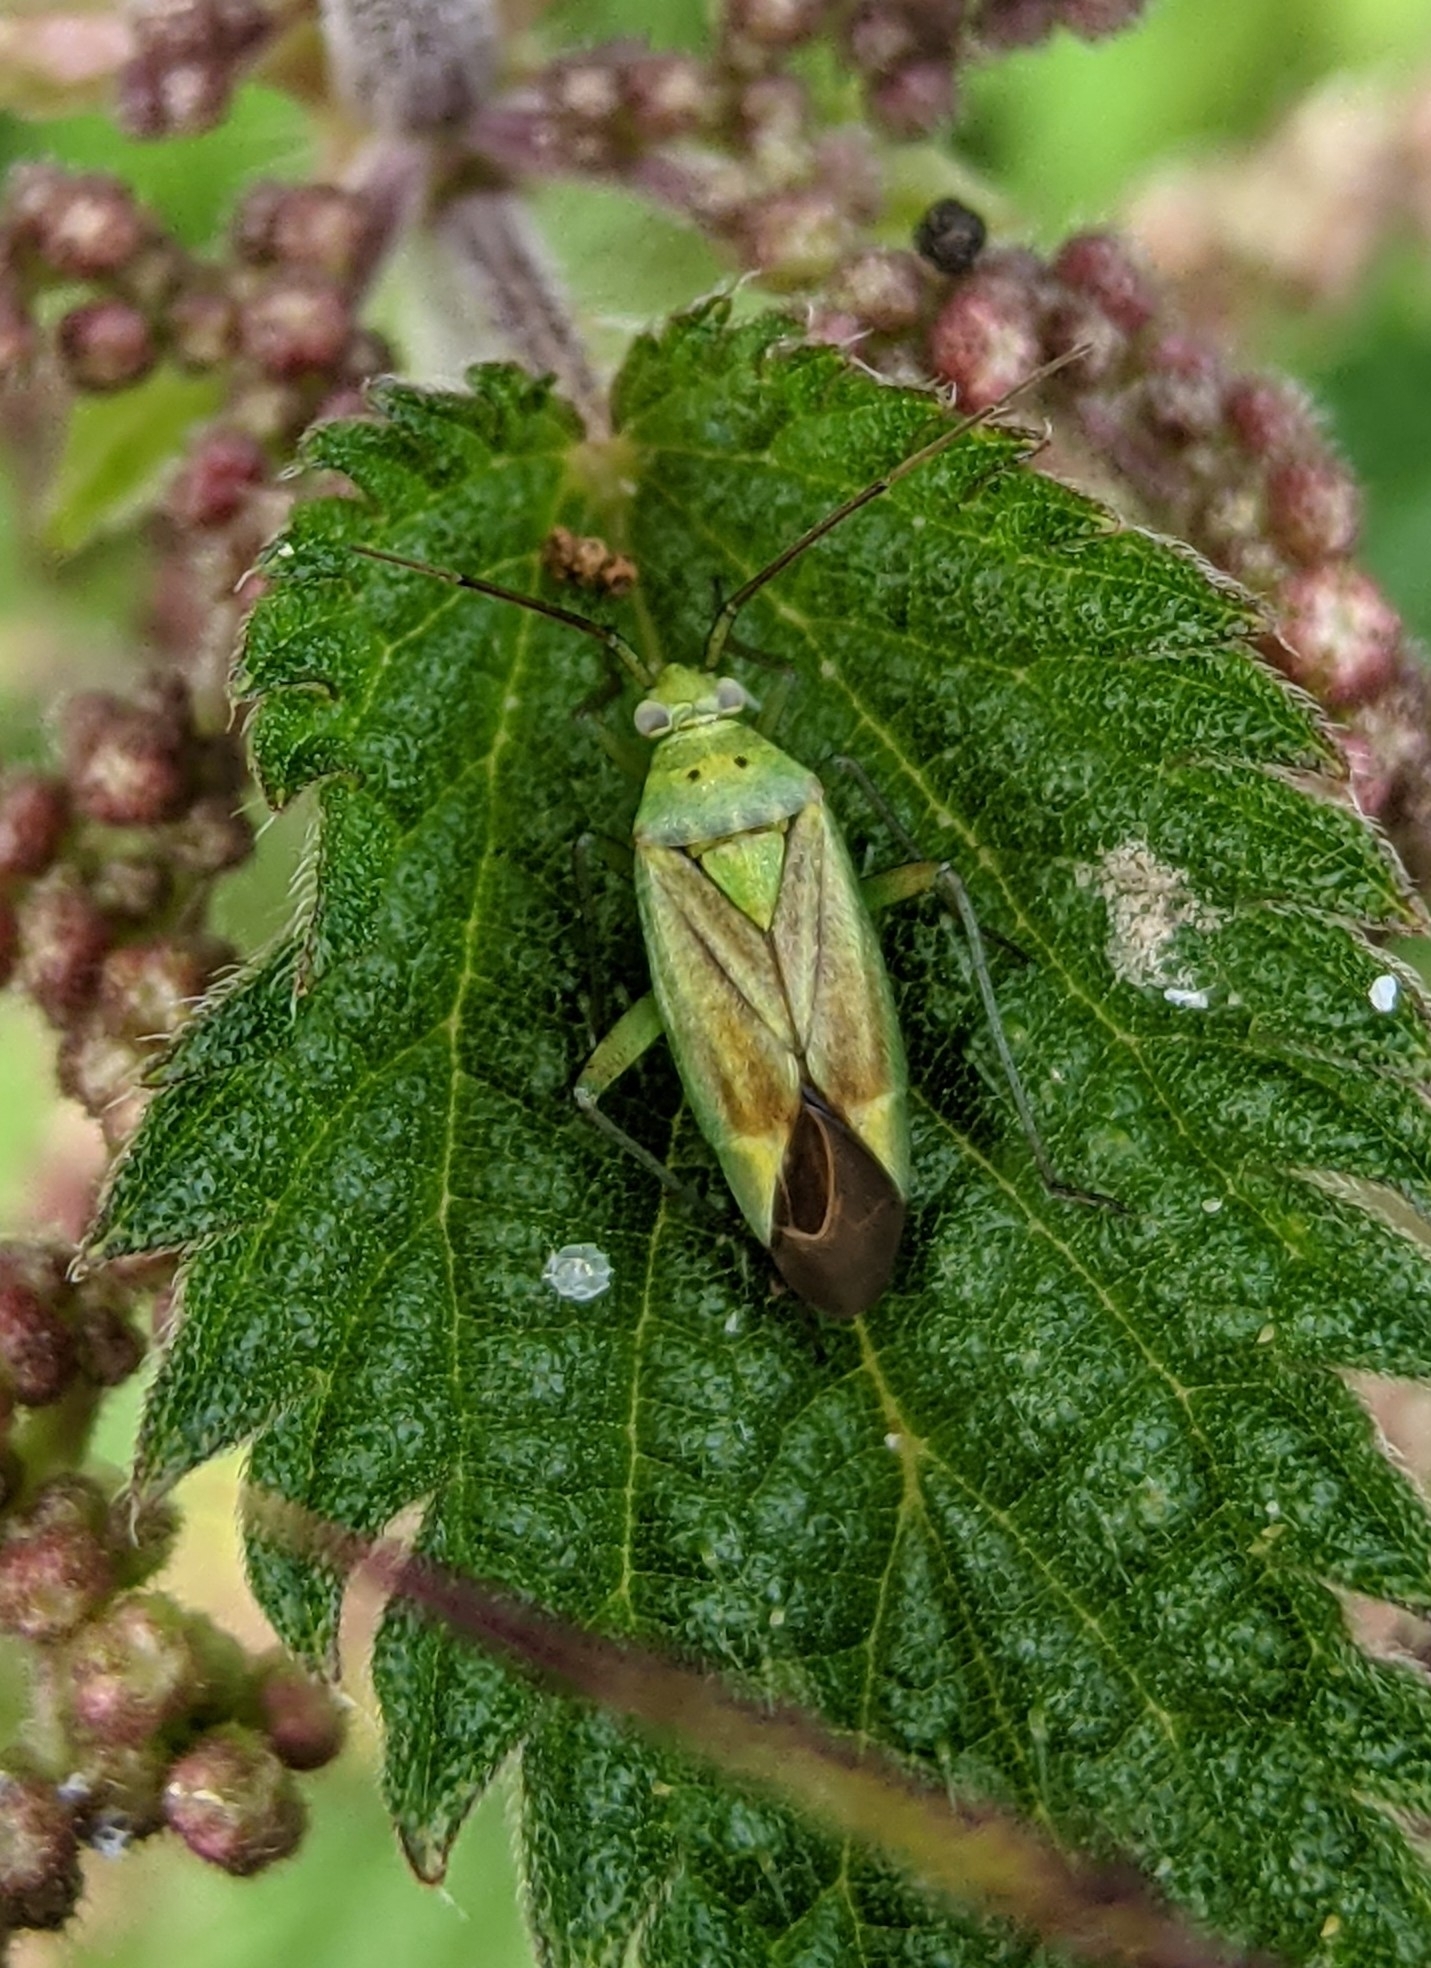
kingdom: Animalia
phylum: Arthropoda
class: Insecta
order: Hemiptera
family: Miridae
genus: Closterotomus
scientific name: Closterotomus norvegicus
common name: Plant bug
